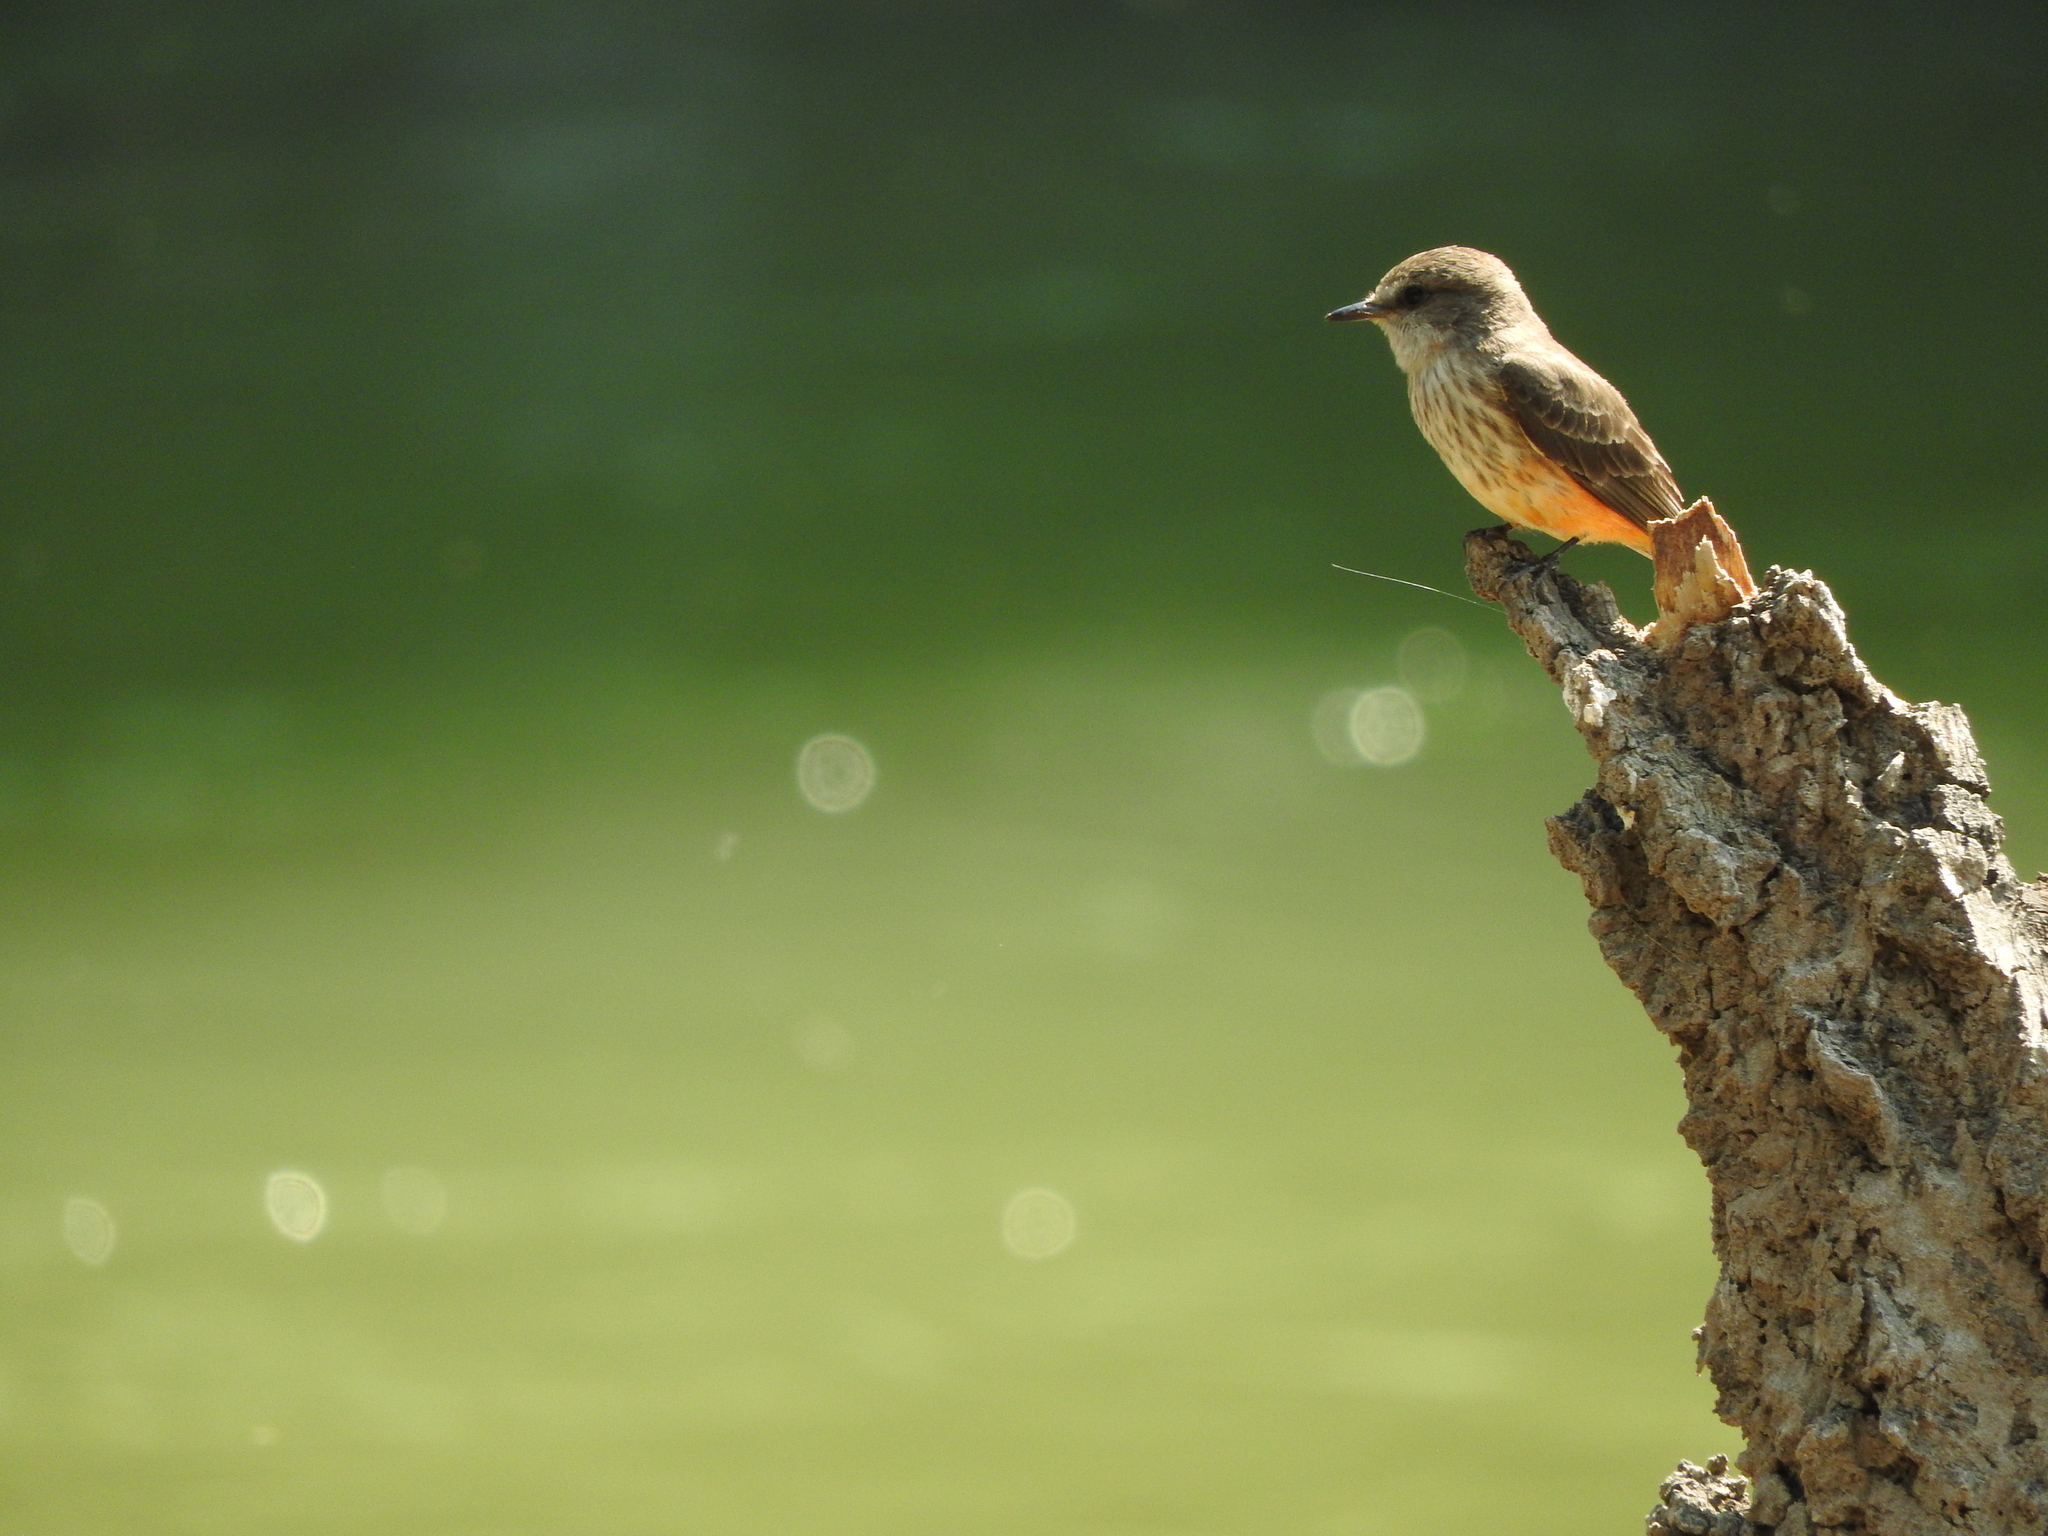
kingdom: Animalia
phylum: Chordata
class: Aves
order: Passeriformes
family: Tyrannidae
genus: Pyrocephalus
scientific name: Pyrocephalus rubinus
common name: Vermilion flycatcher
